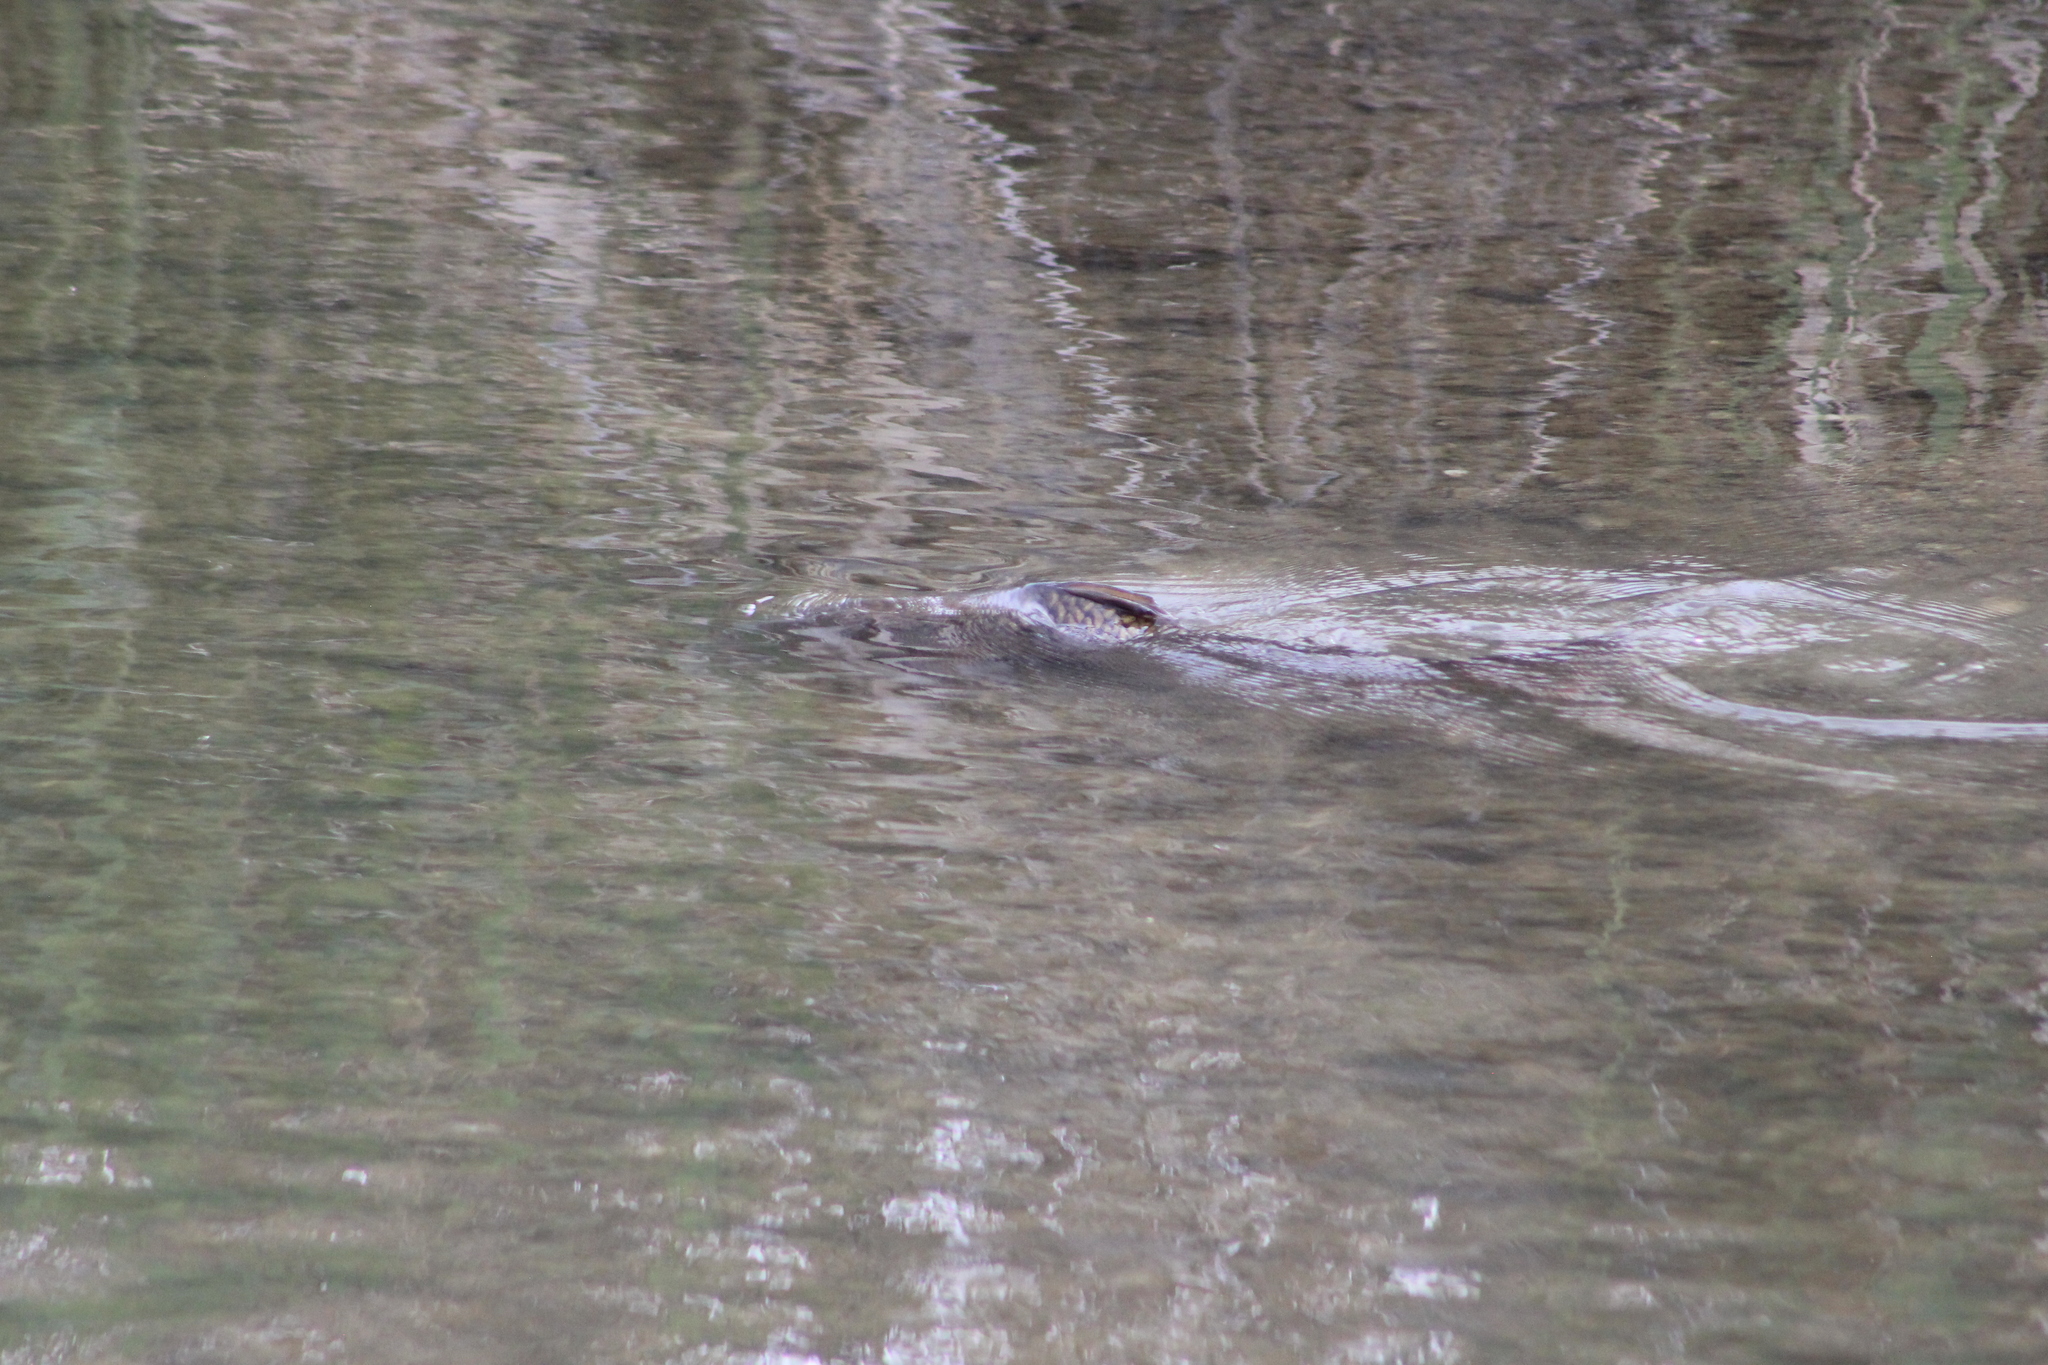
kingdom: Animalia
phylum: Chordata
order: Cypriniformes
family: Cyprinidae
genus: Cyprinus
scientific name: Cyprinus carpio
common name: Common carp
